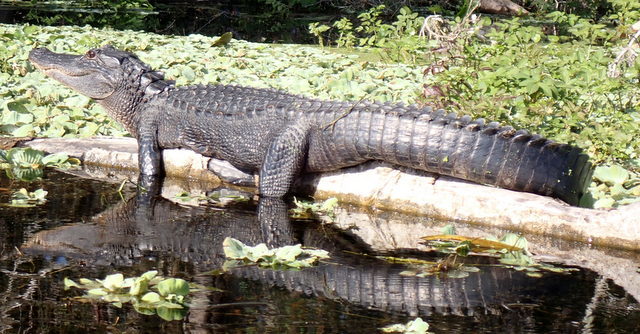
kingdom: Animalia
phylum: Chordata
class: Crocodylia
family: Alligatoridae
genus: Alligator
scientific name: Alligator mississippiensis
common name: American alligator
